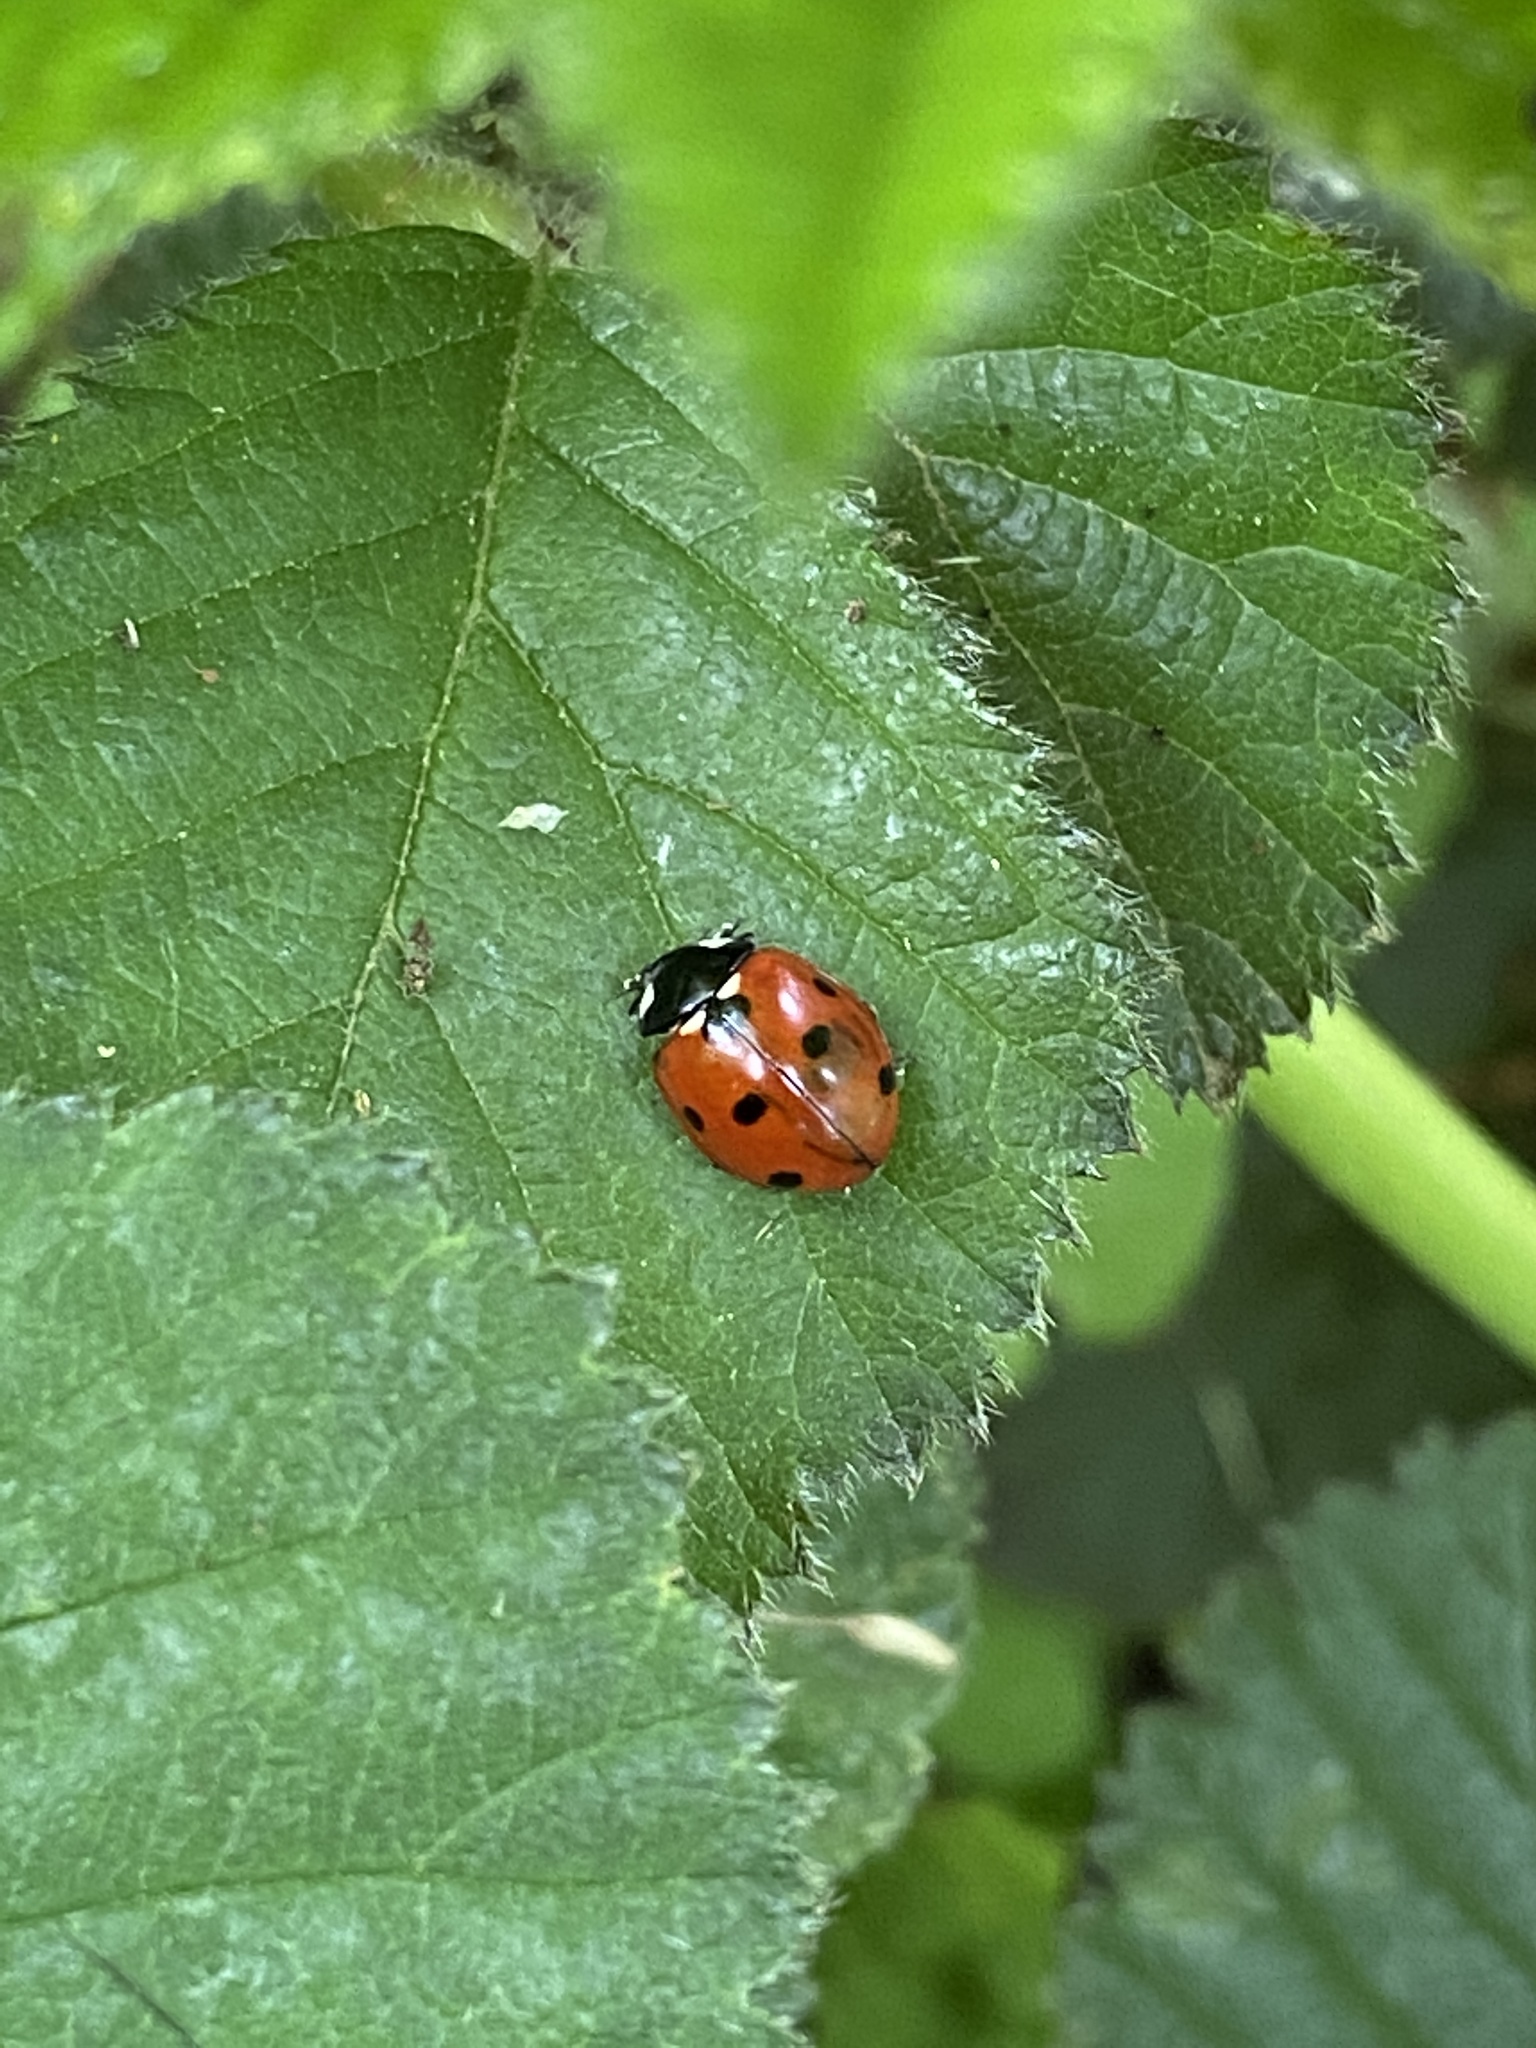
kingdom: Animalia
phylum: Arthropoda
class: Insecta
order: Coleoptera
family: Coccinellidae
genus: Coccinella
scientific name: Coccinella septempunctata
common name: Sevenspotted lady beetle
